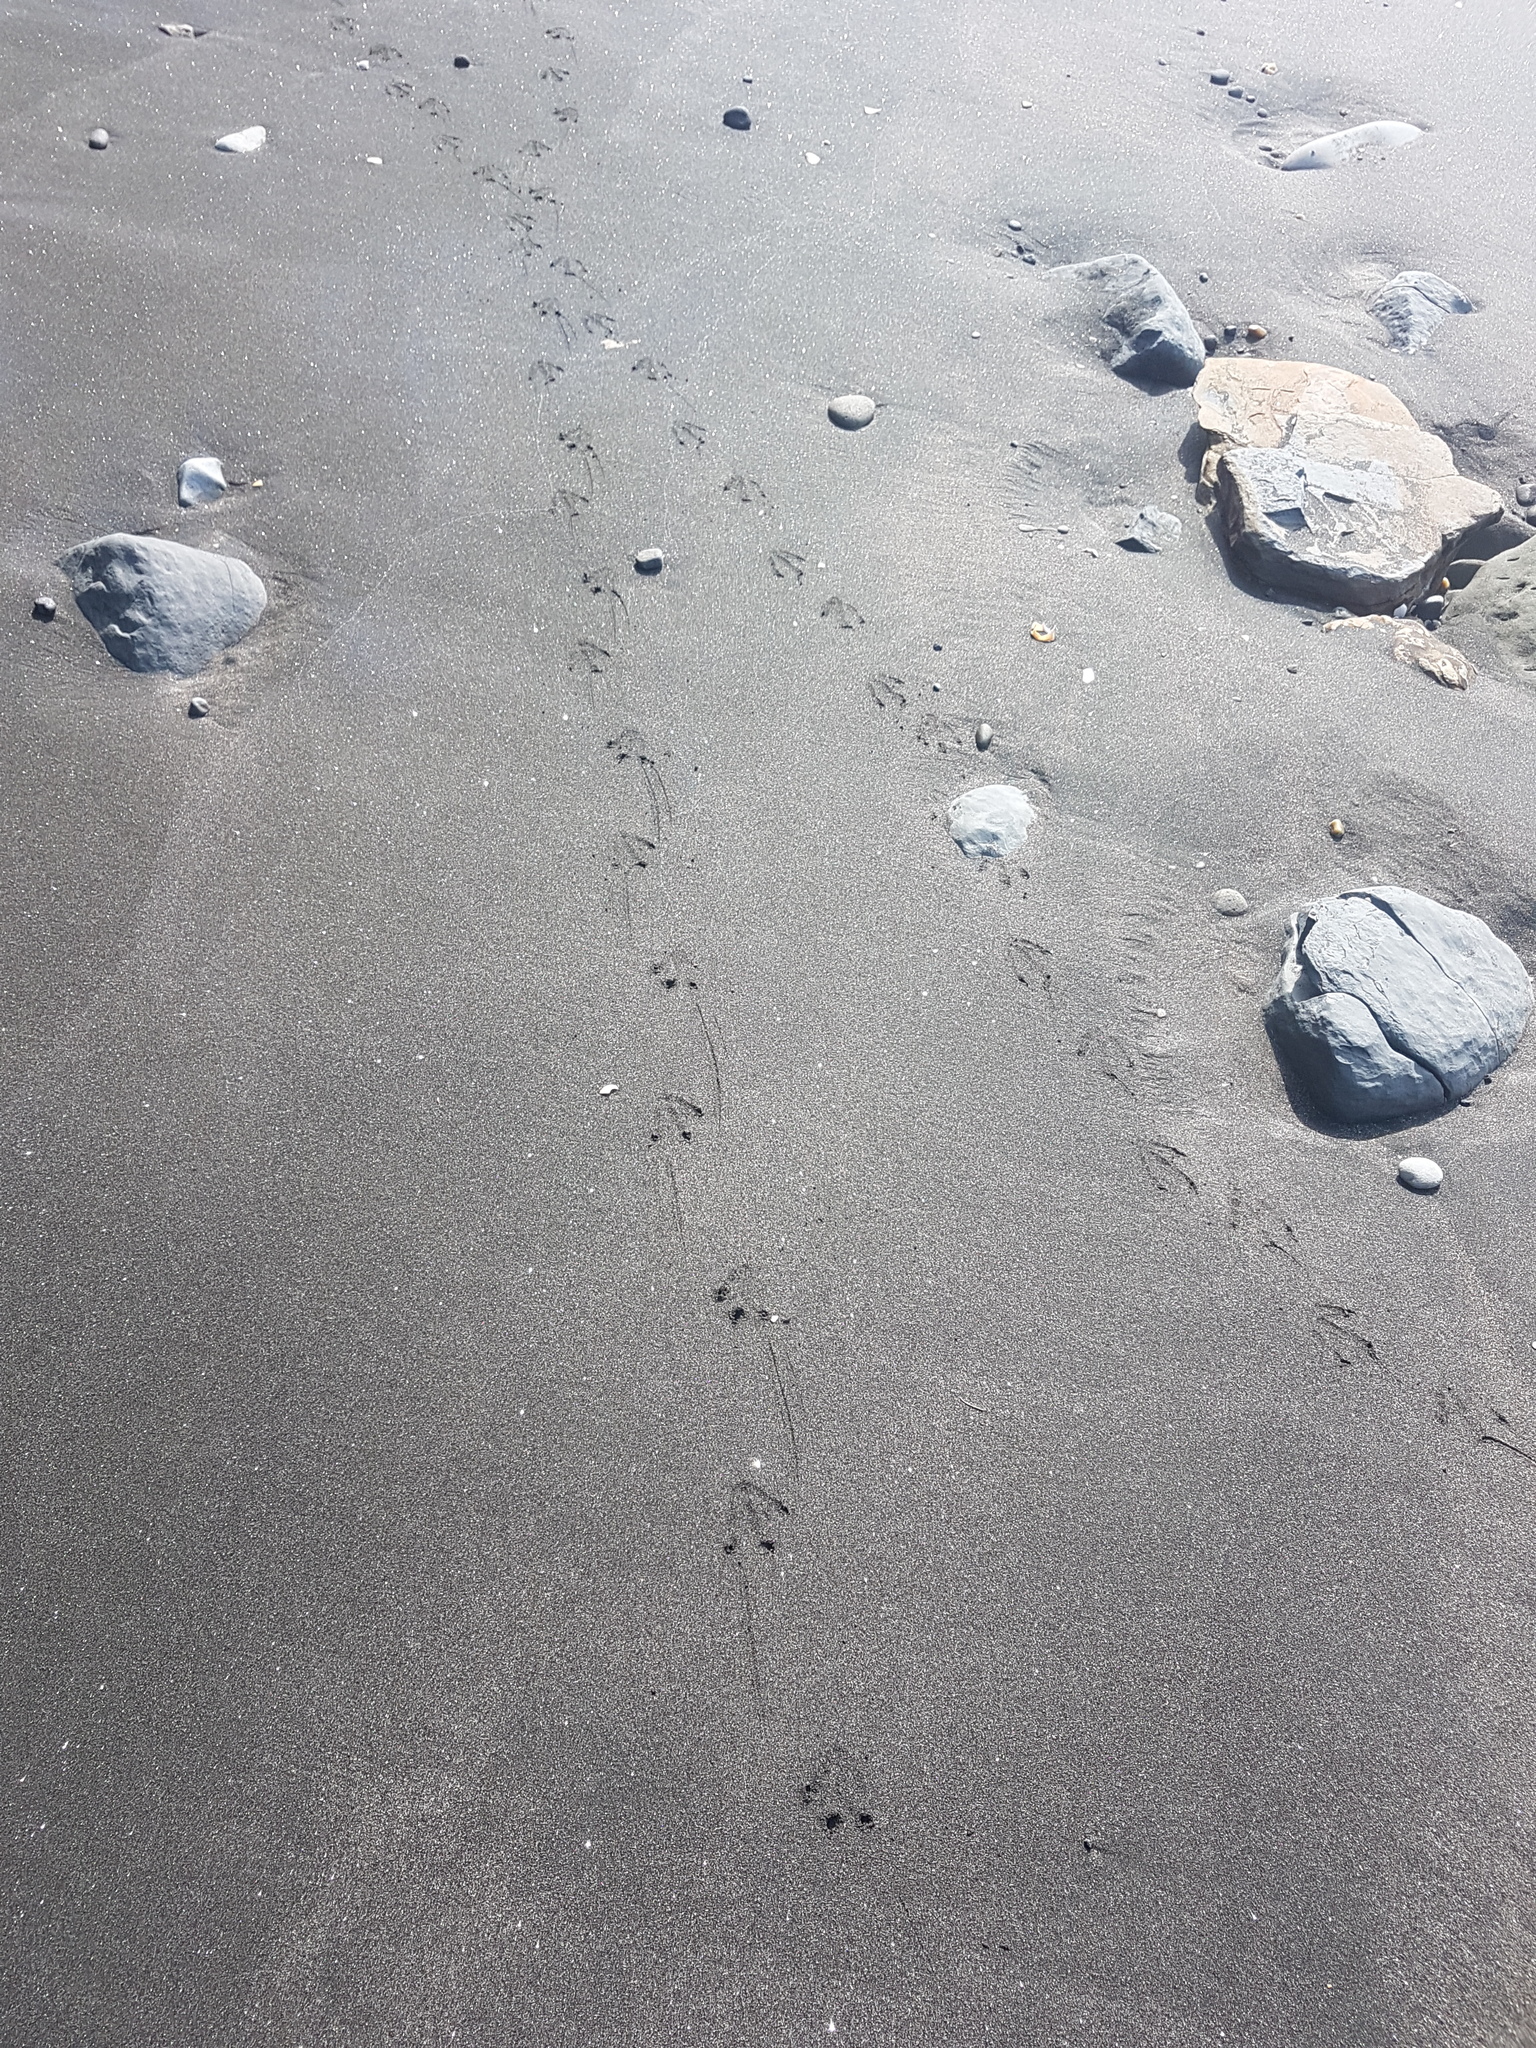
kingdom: Animalia
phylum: Chordata
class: Aves
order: Sphenisciformes
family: Spheniscidae
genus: Eudyptula
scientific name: Eudyptula minor
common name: Little penguin
